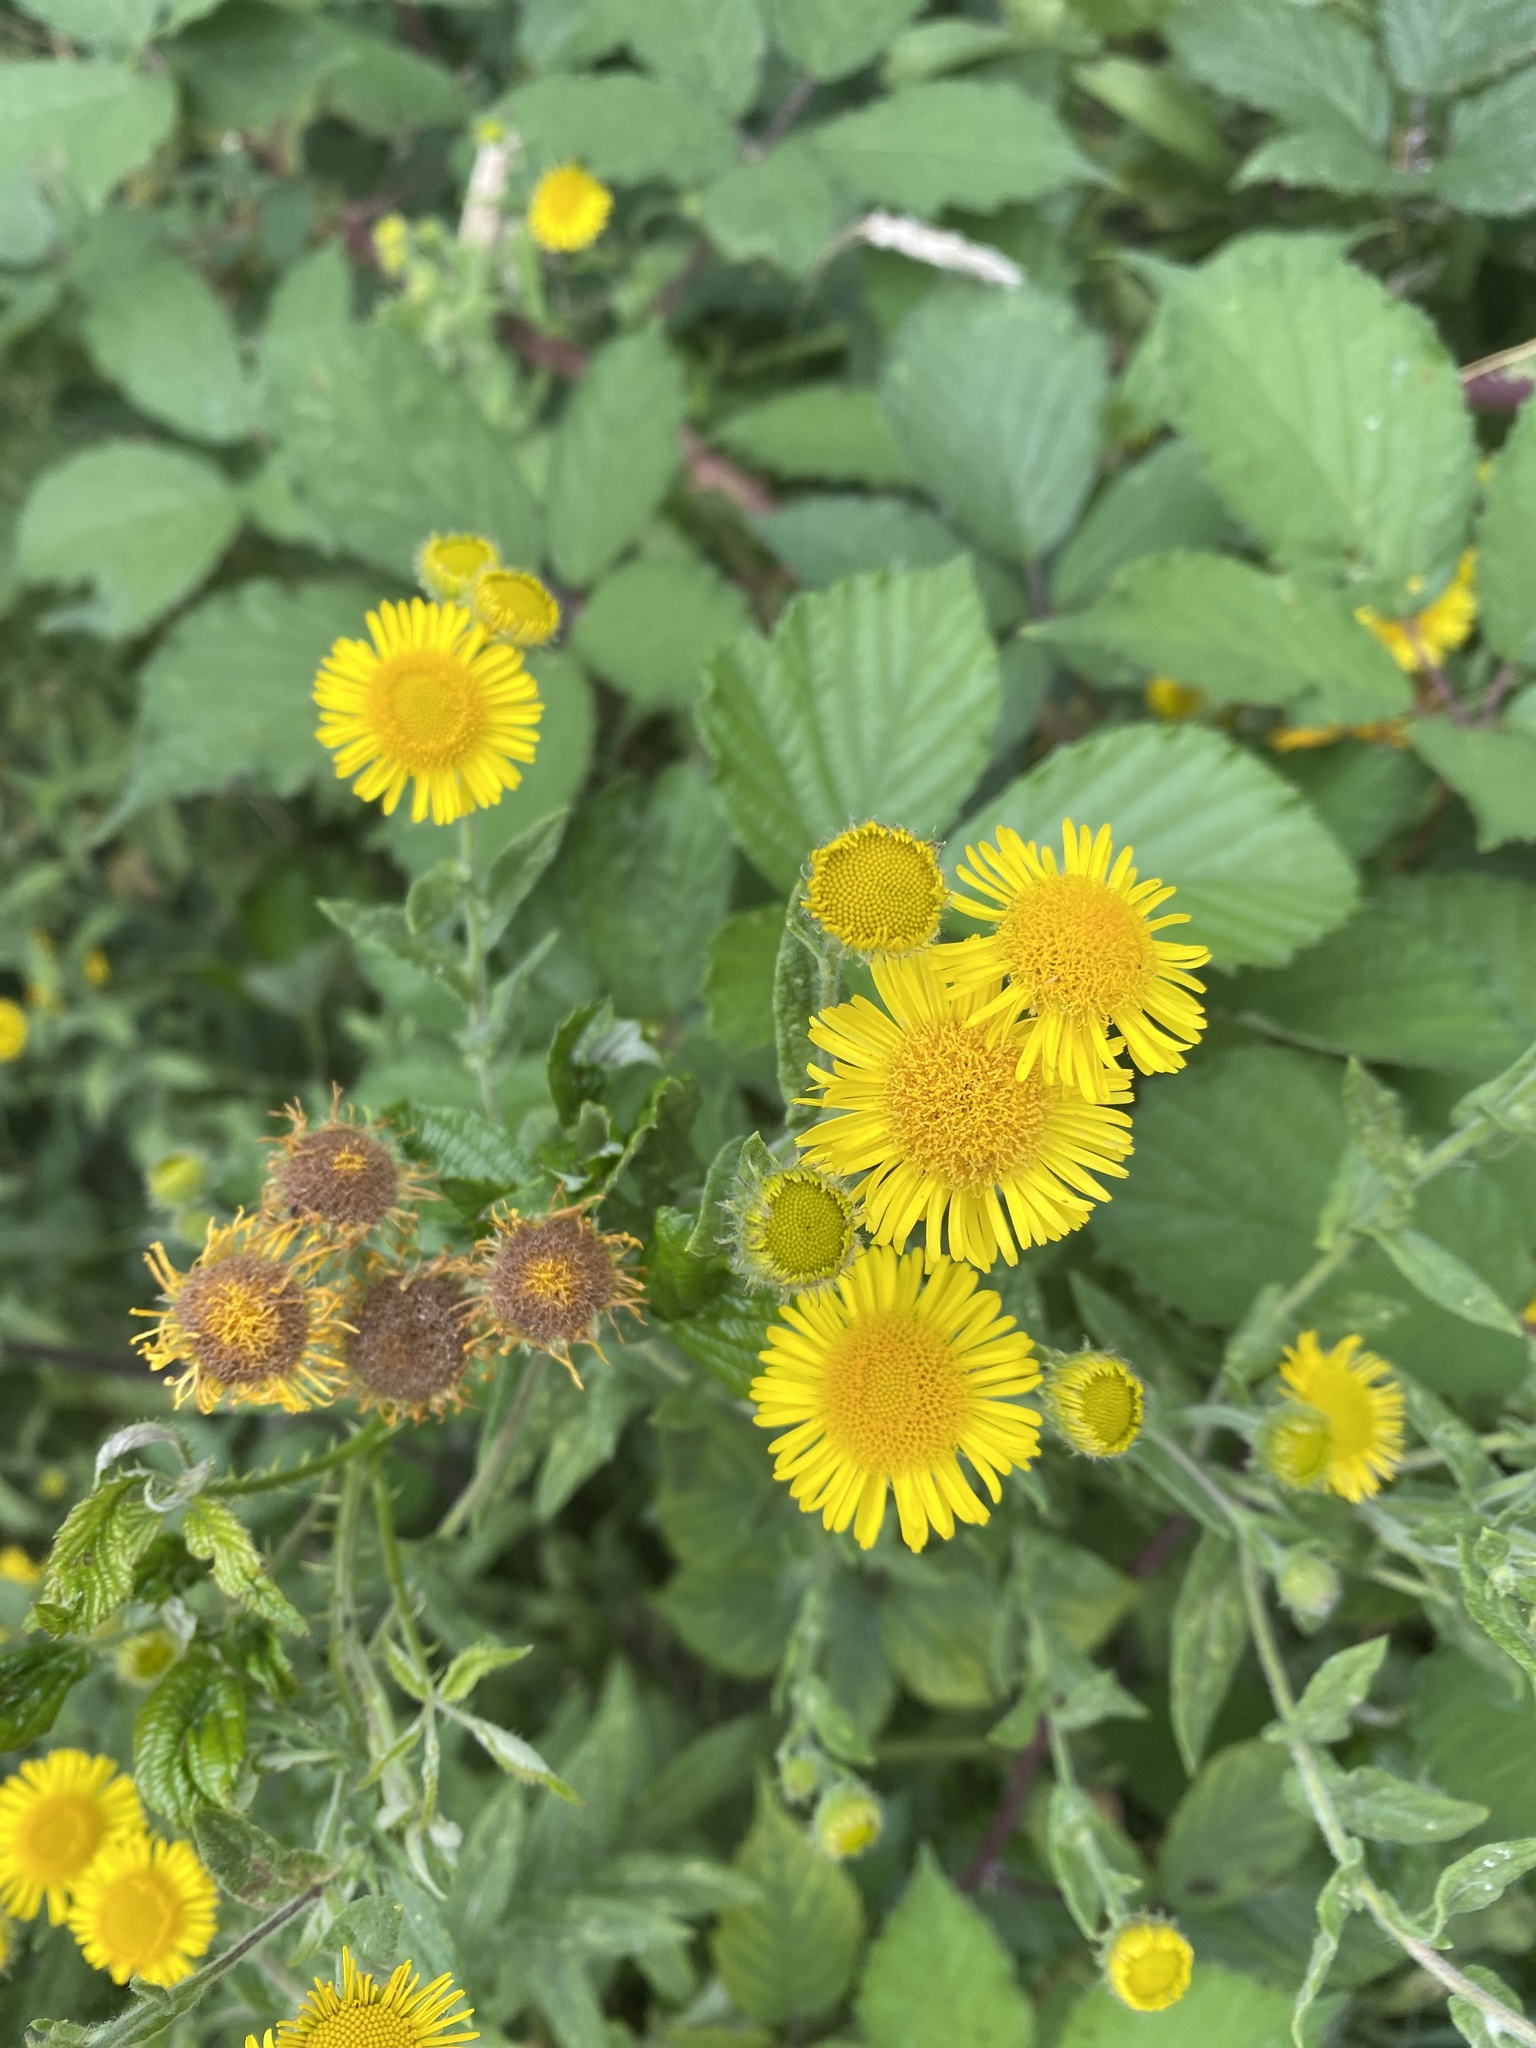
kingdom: Plantae
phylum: Tracheophyta
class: Magnoliopsida
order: Asterales
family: Asteraceae
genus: Pulicaria
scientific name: Pulicaria dysenterica
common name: Common fleabane
